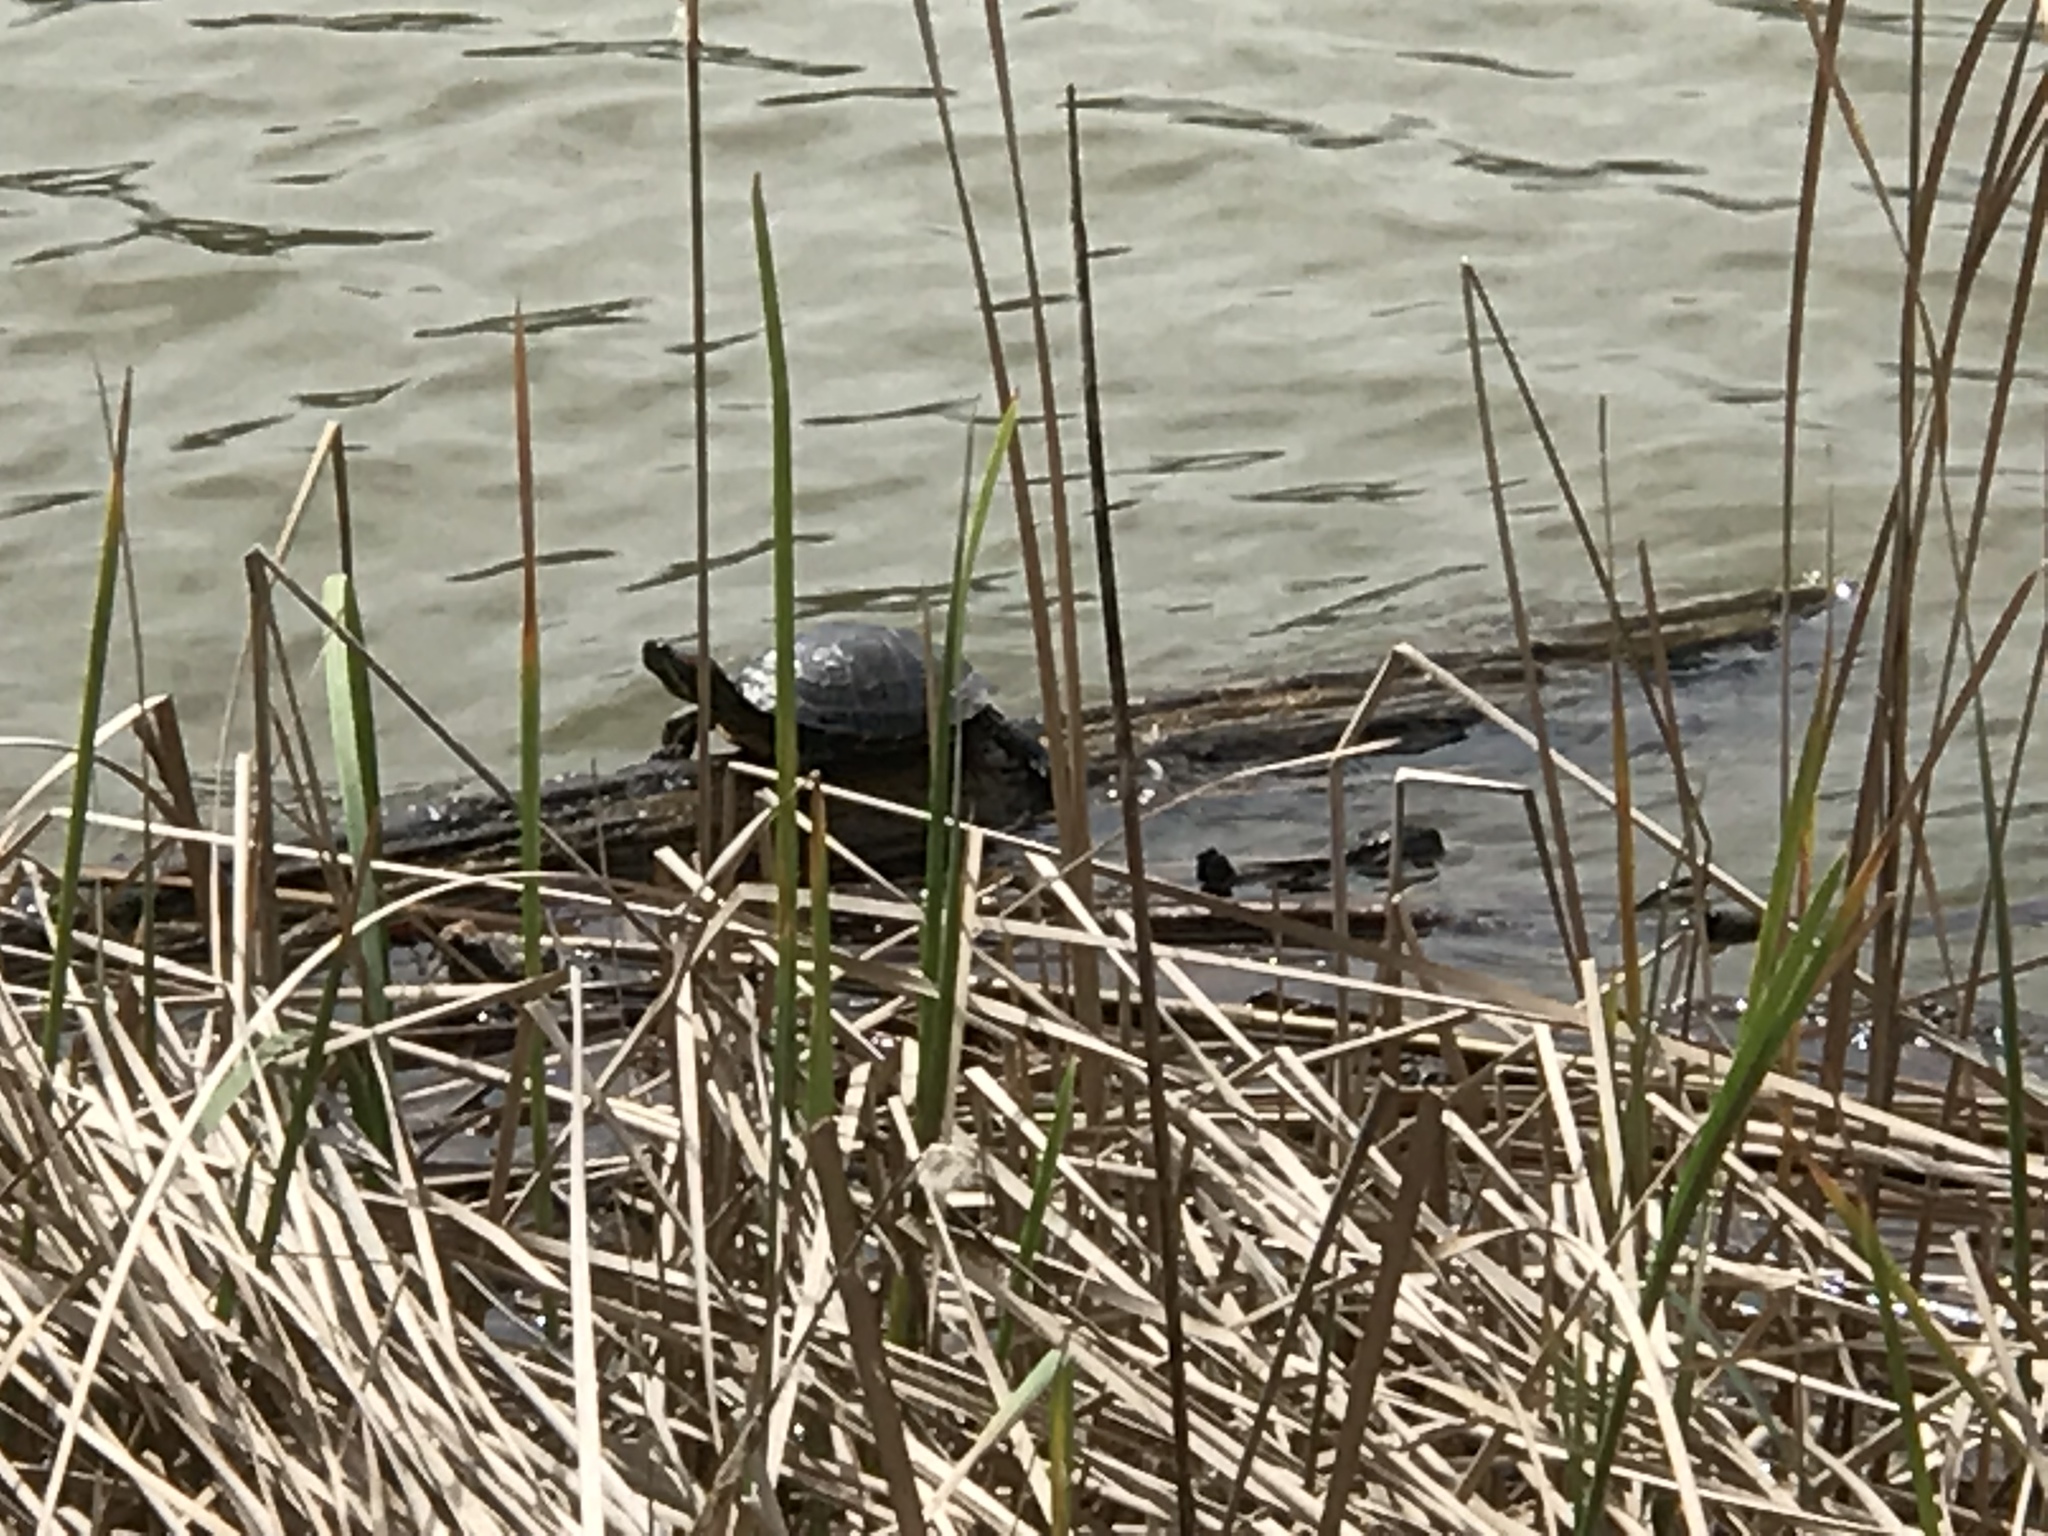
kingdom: Animalia
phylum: Chordata
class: Testudines
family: Emydidae
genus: Trachemys
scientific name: Trachemys scripta
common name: Slider
